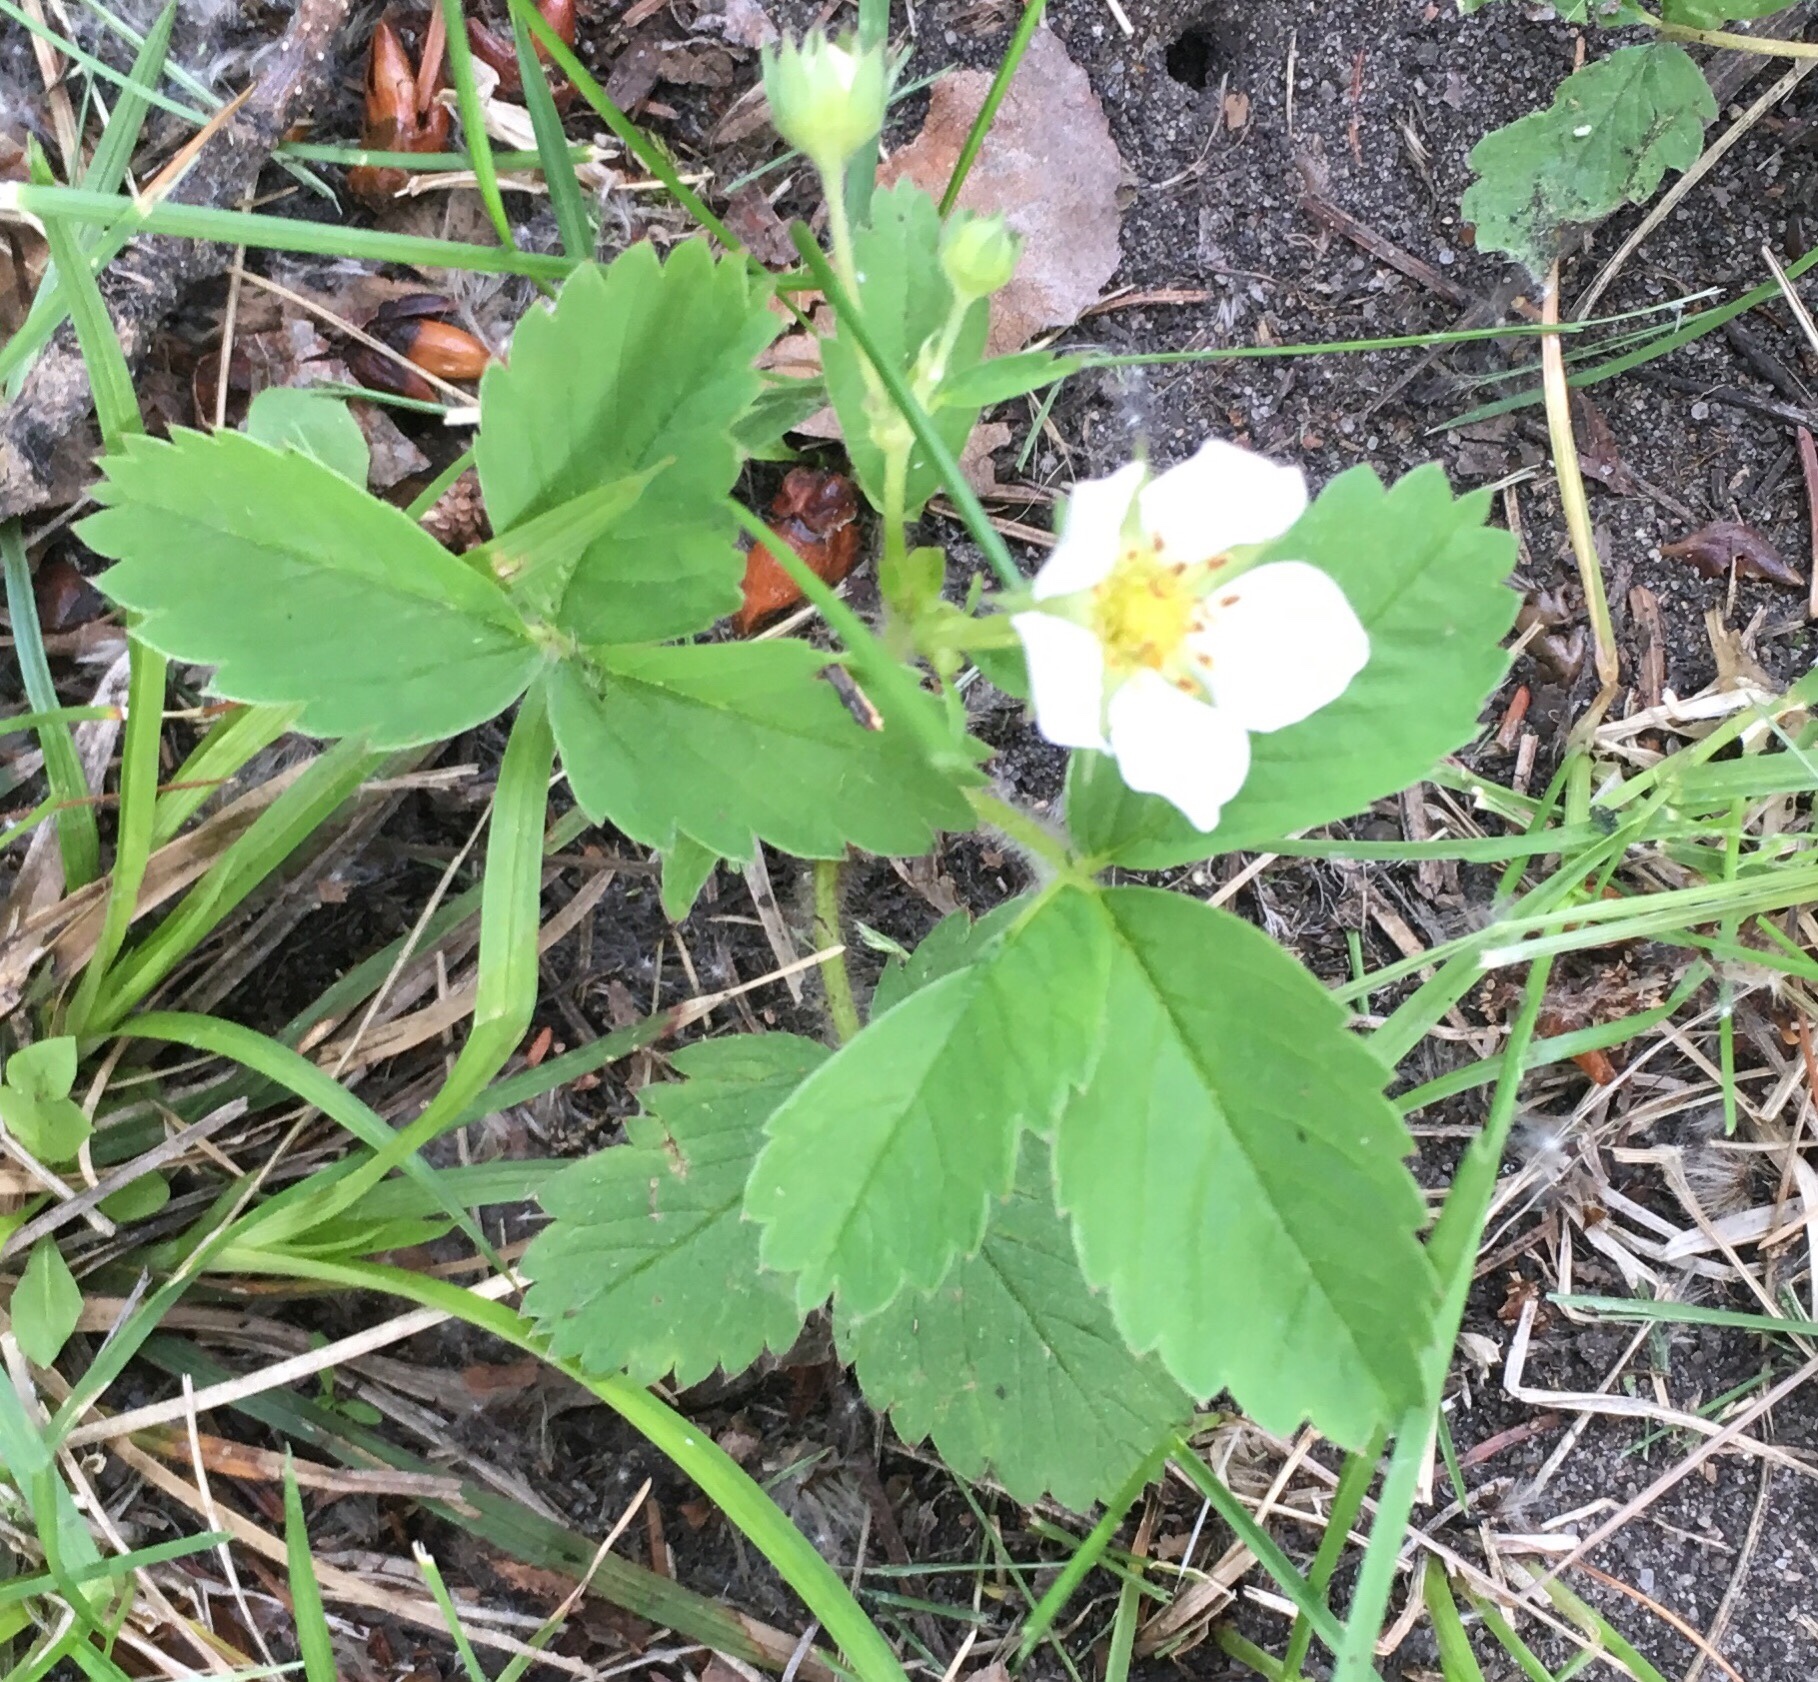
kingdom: Plantae
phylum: Tracheophyta
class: Magnoliopsida
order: Rosales
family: Rosaceae
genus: Fragaria
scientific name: Fragaria virginiana
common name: Thickleaved wild strawberry
